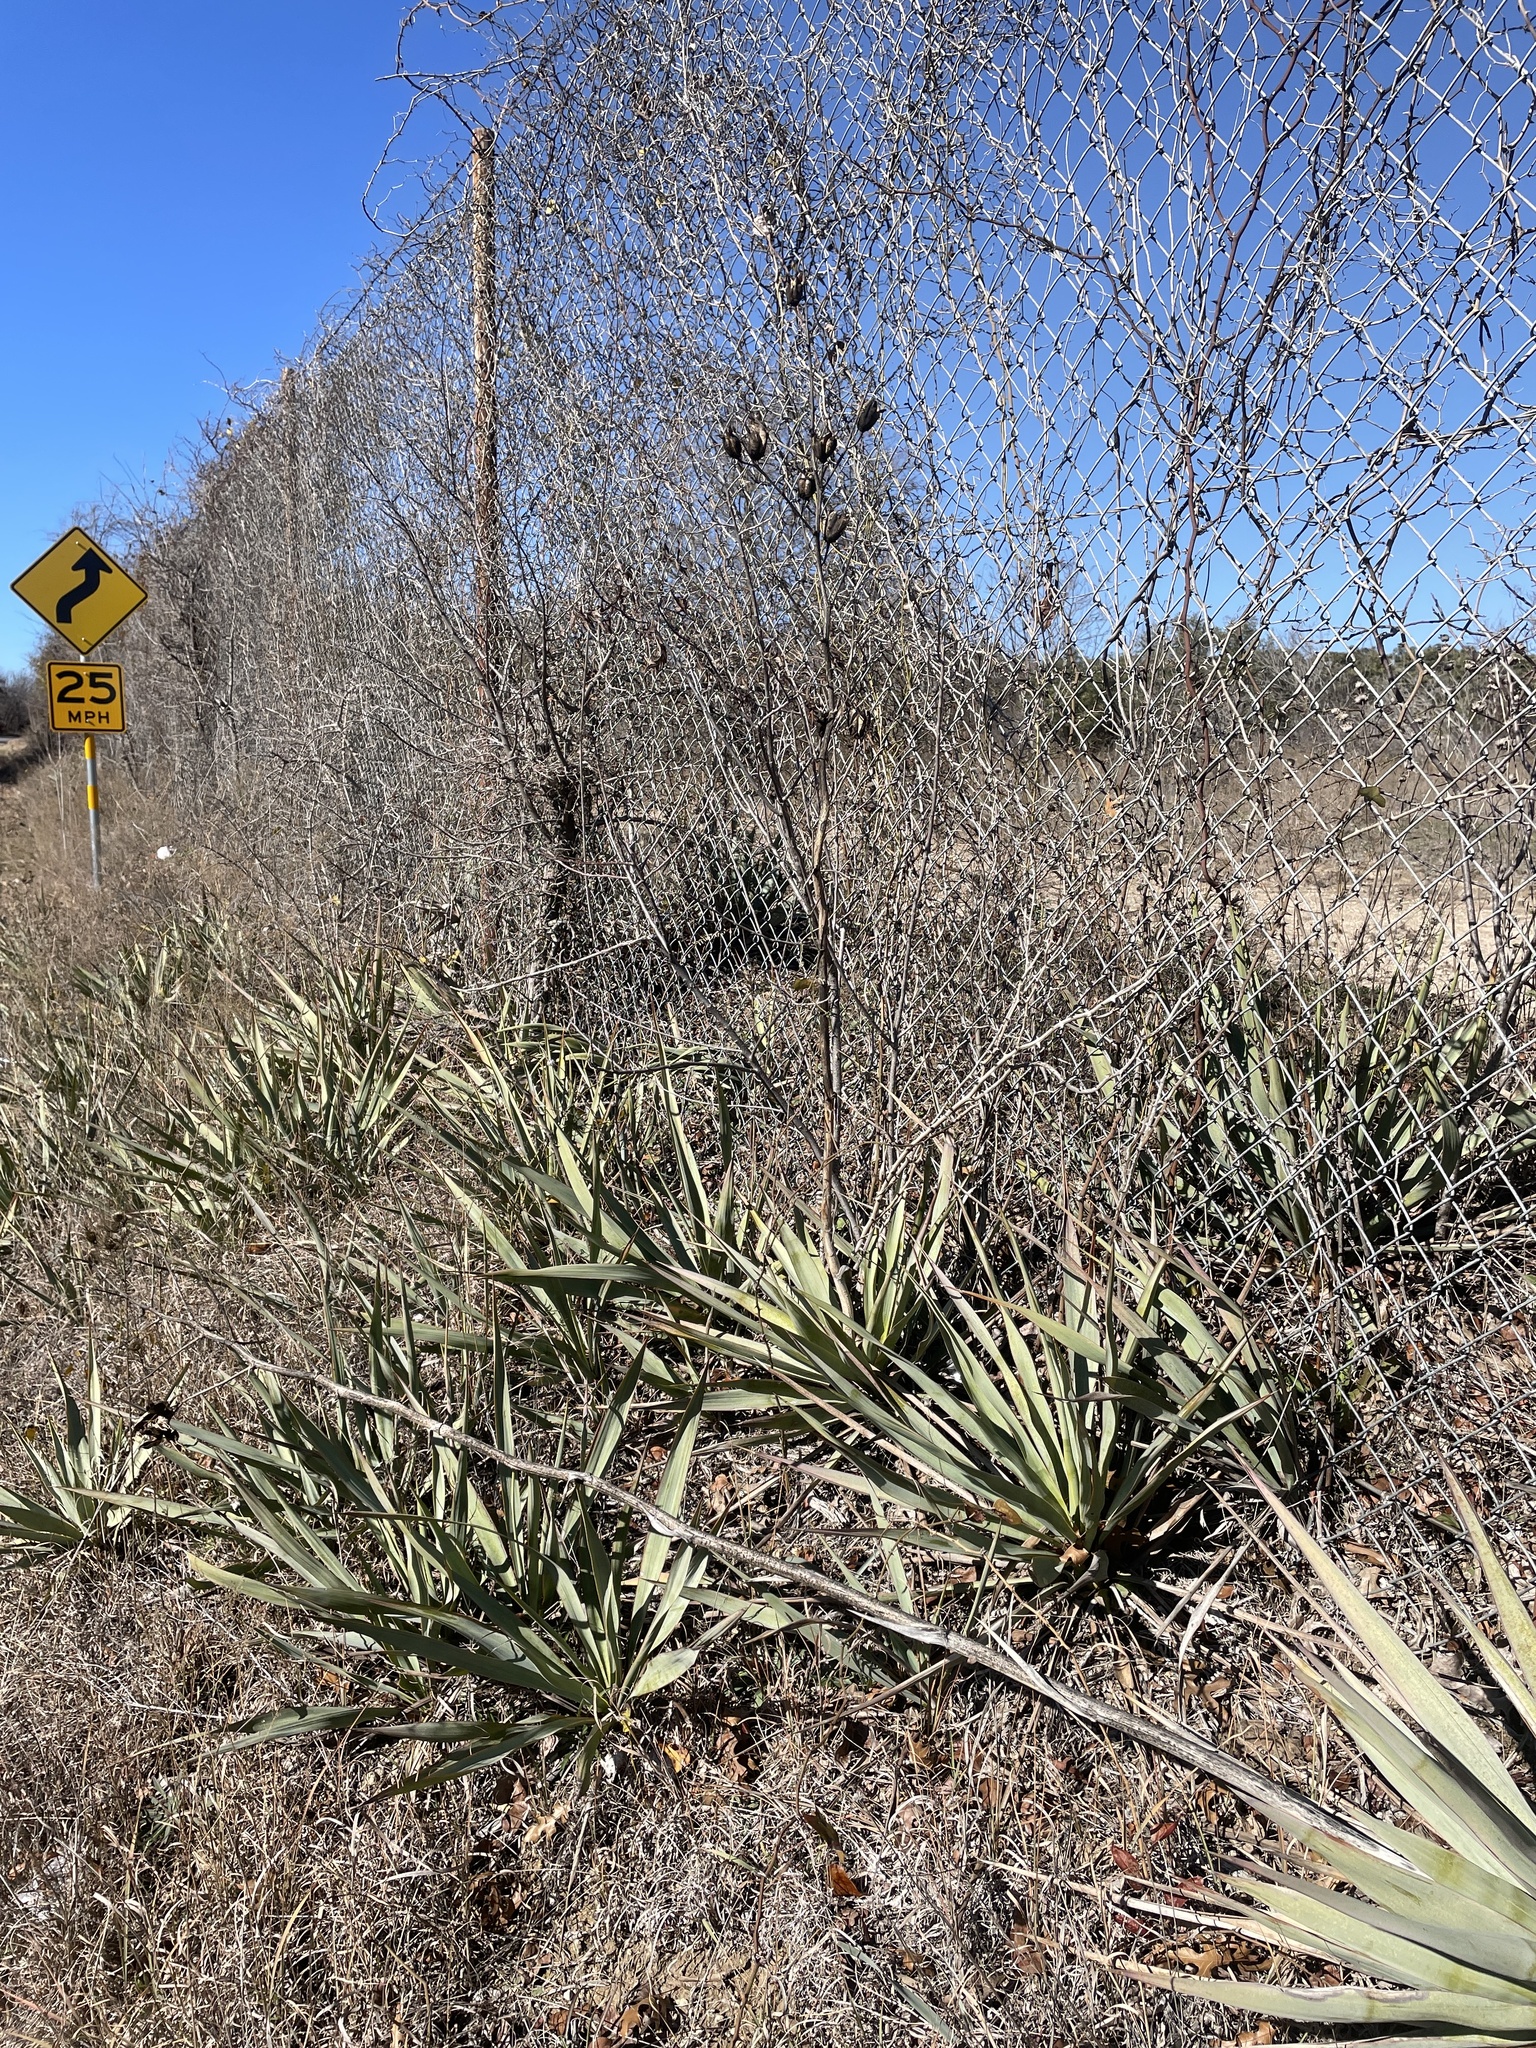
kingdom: Plantae
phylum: Tracheophyta
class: Liliopsida
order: Asparagales
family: Asparagaceae
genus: Yucca
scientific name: Yucca pallida
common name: Pale leaf yucca
